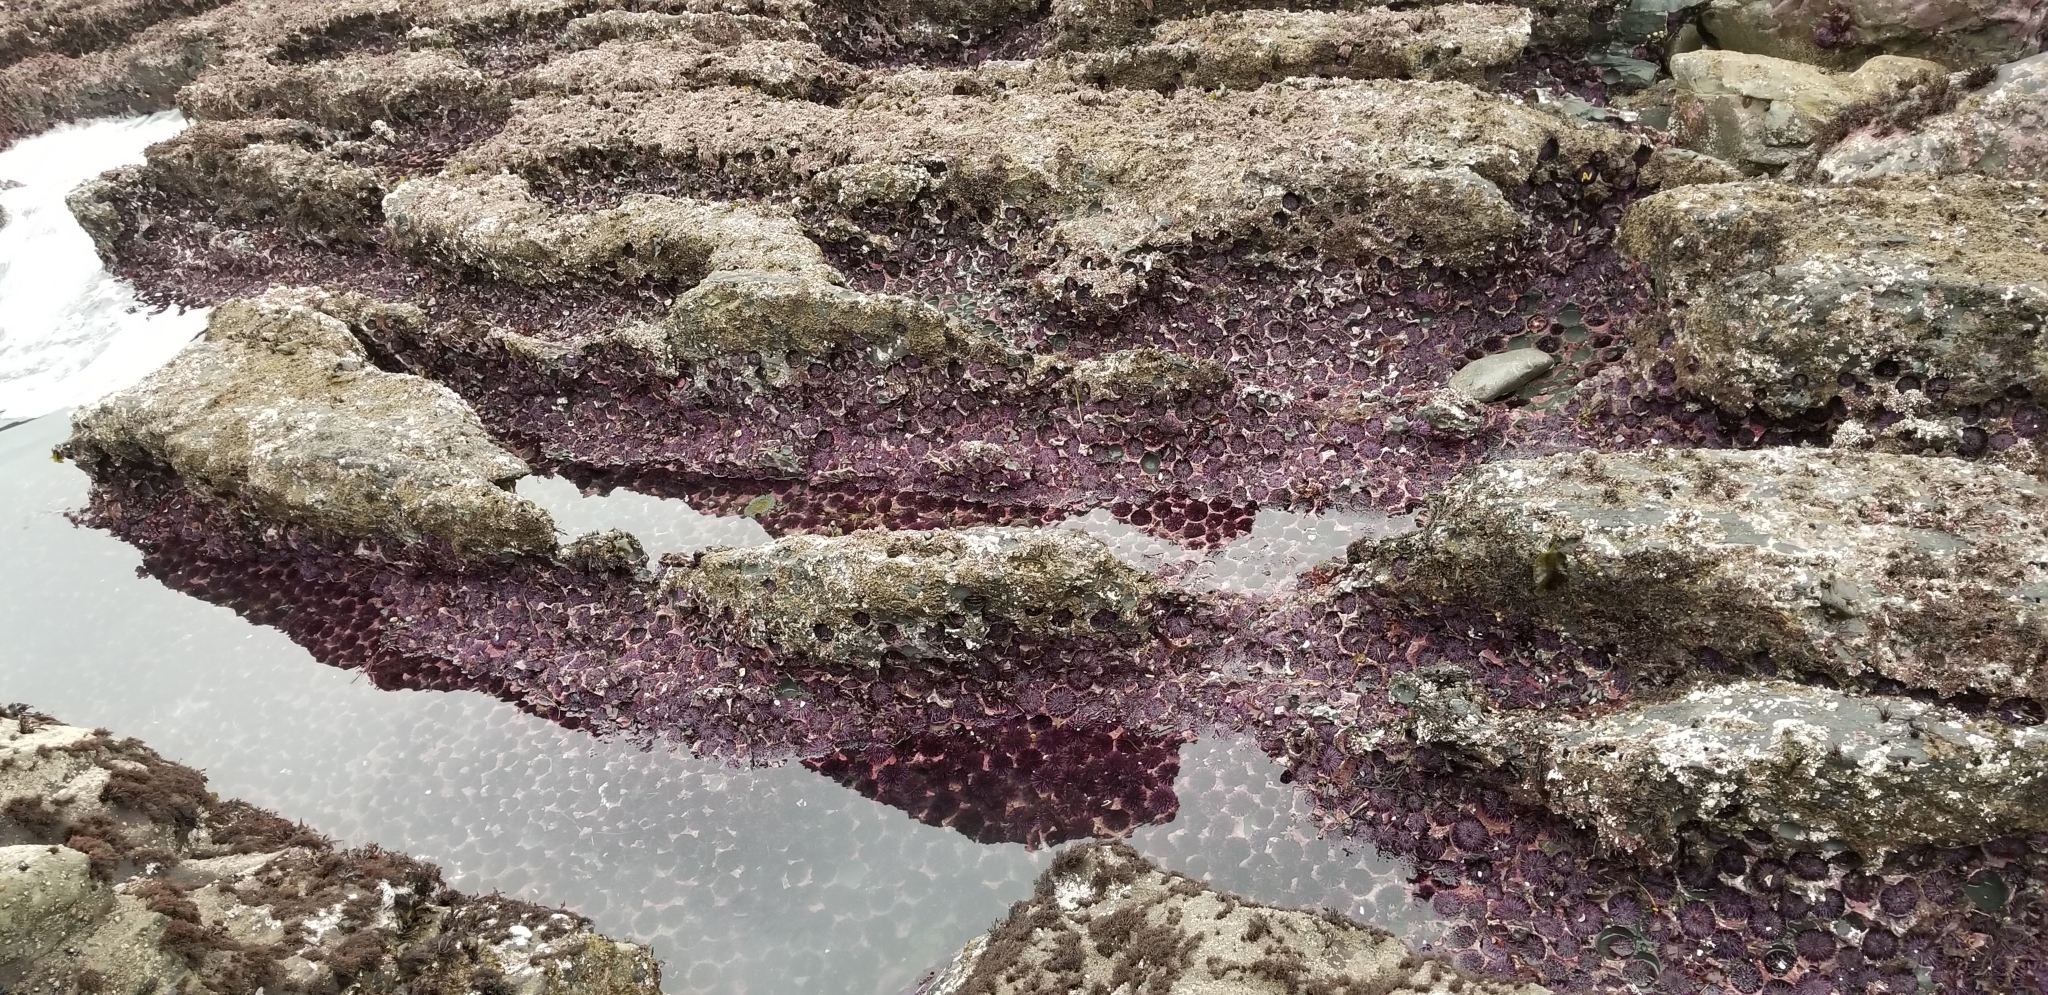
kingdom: Animalia
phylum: Echinodermata
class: Echinoidea
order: Camarodonta
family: Strongylocentrotidae
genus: Strongylocentrotus
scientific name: Strongylocentrotus purpuratus
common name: Purple sea urchin
